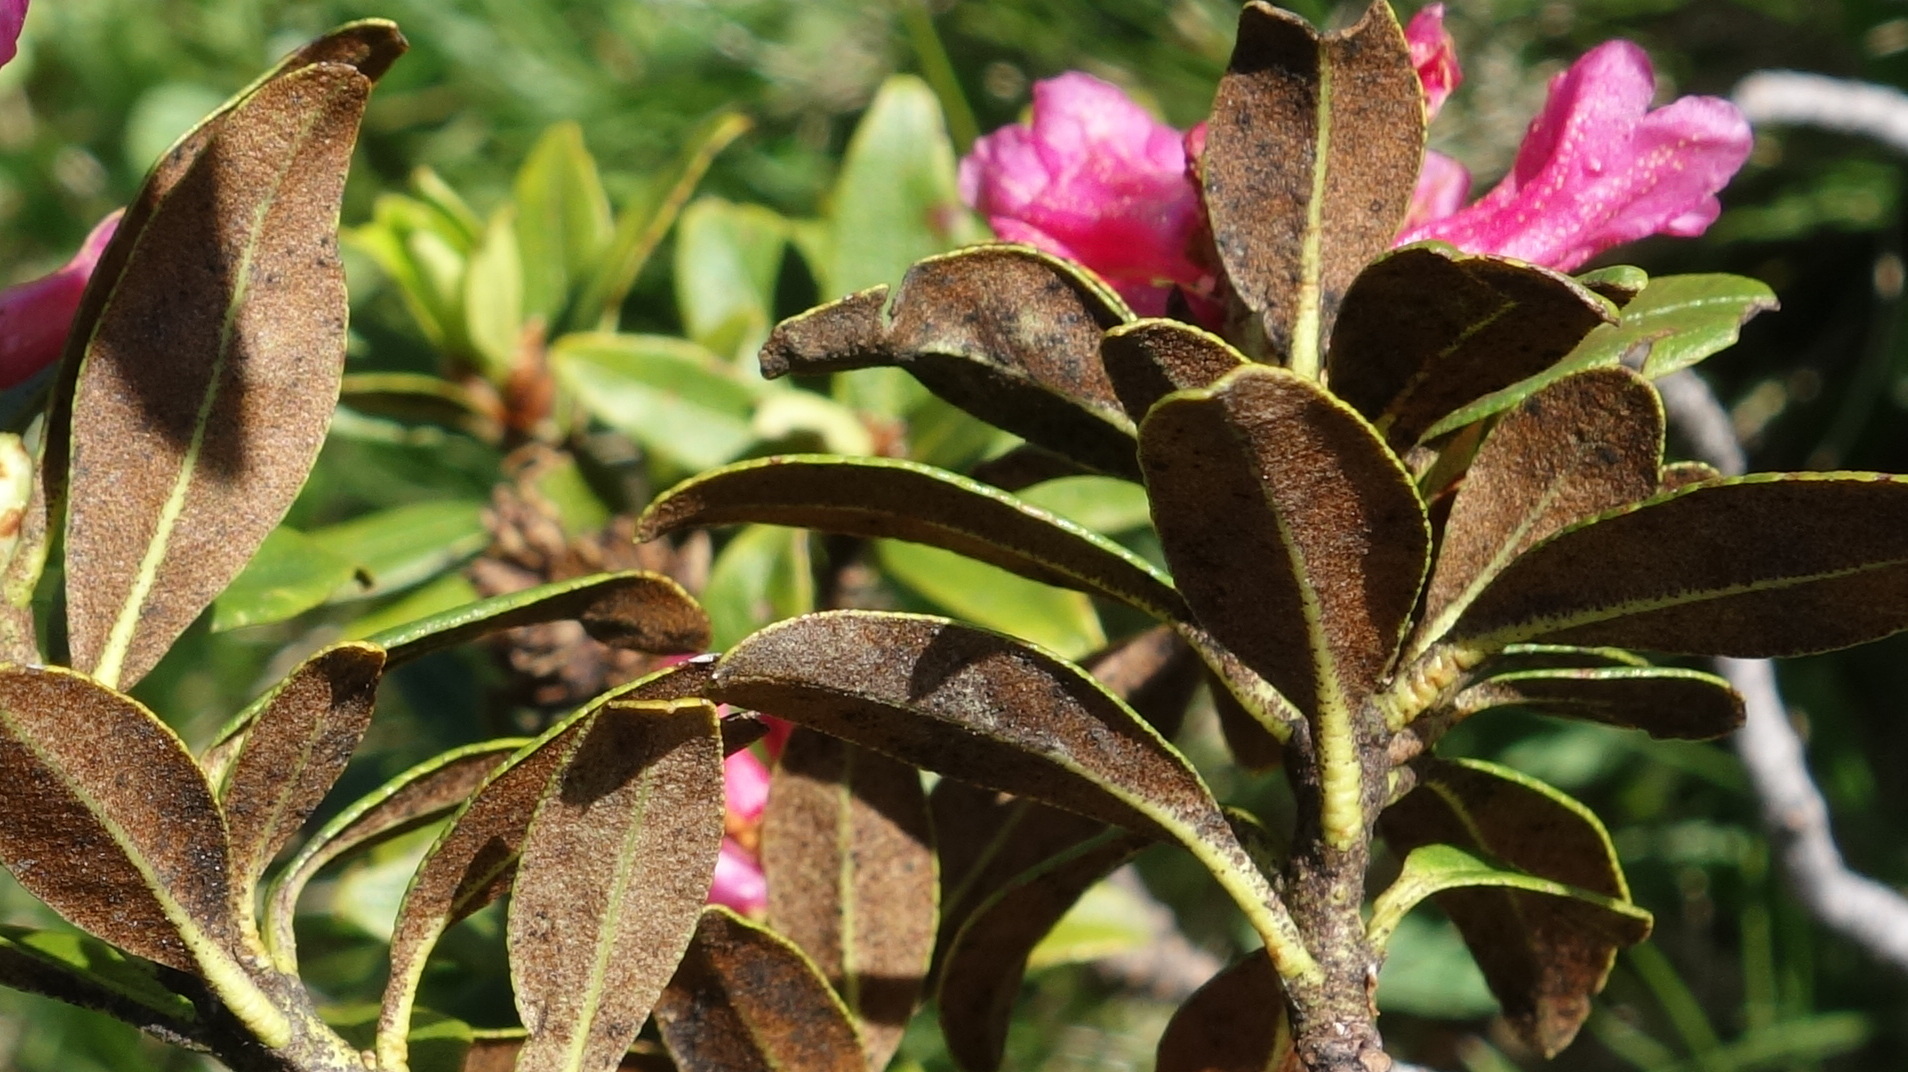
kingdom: Plantae
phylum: Tracheophyta
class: Magnoliopsida
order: Ericales
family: Ericaceae
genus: Rhododendron
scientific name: Rhododendron ferrugineum
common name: Alpenrose
